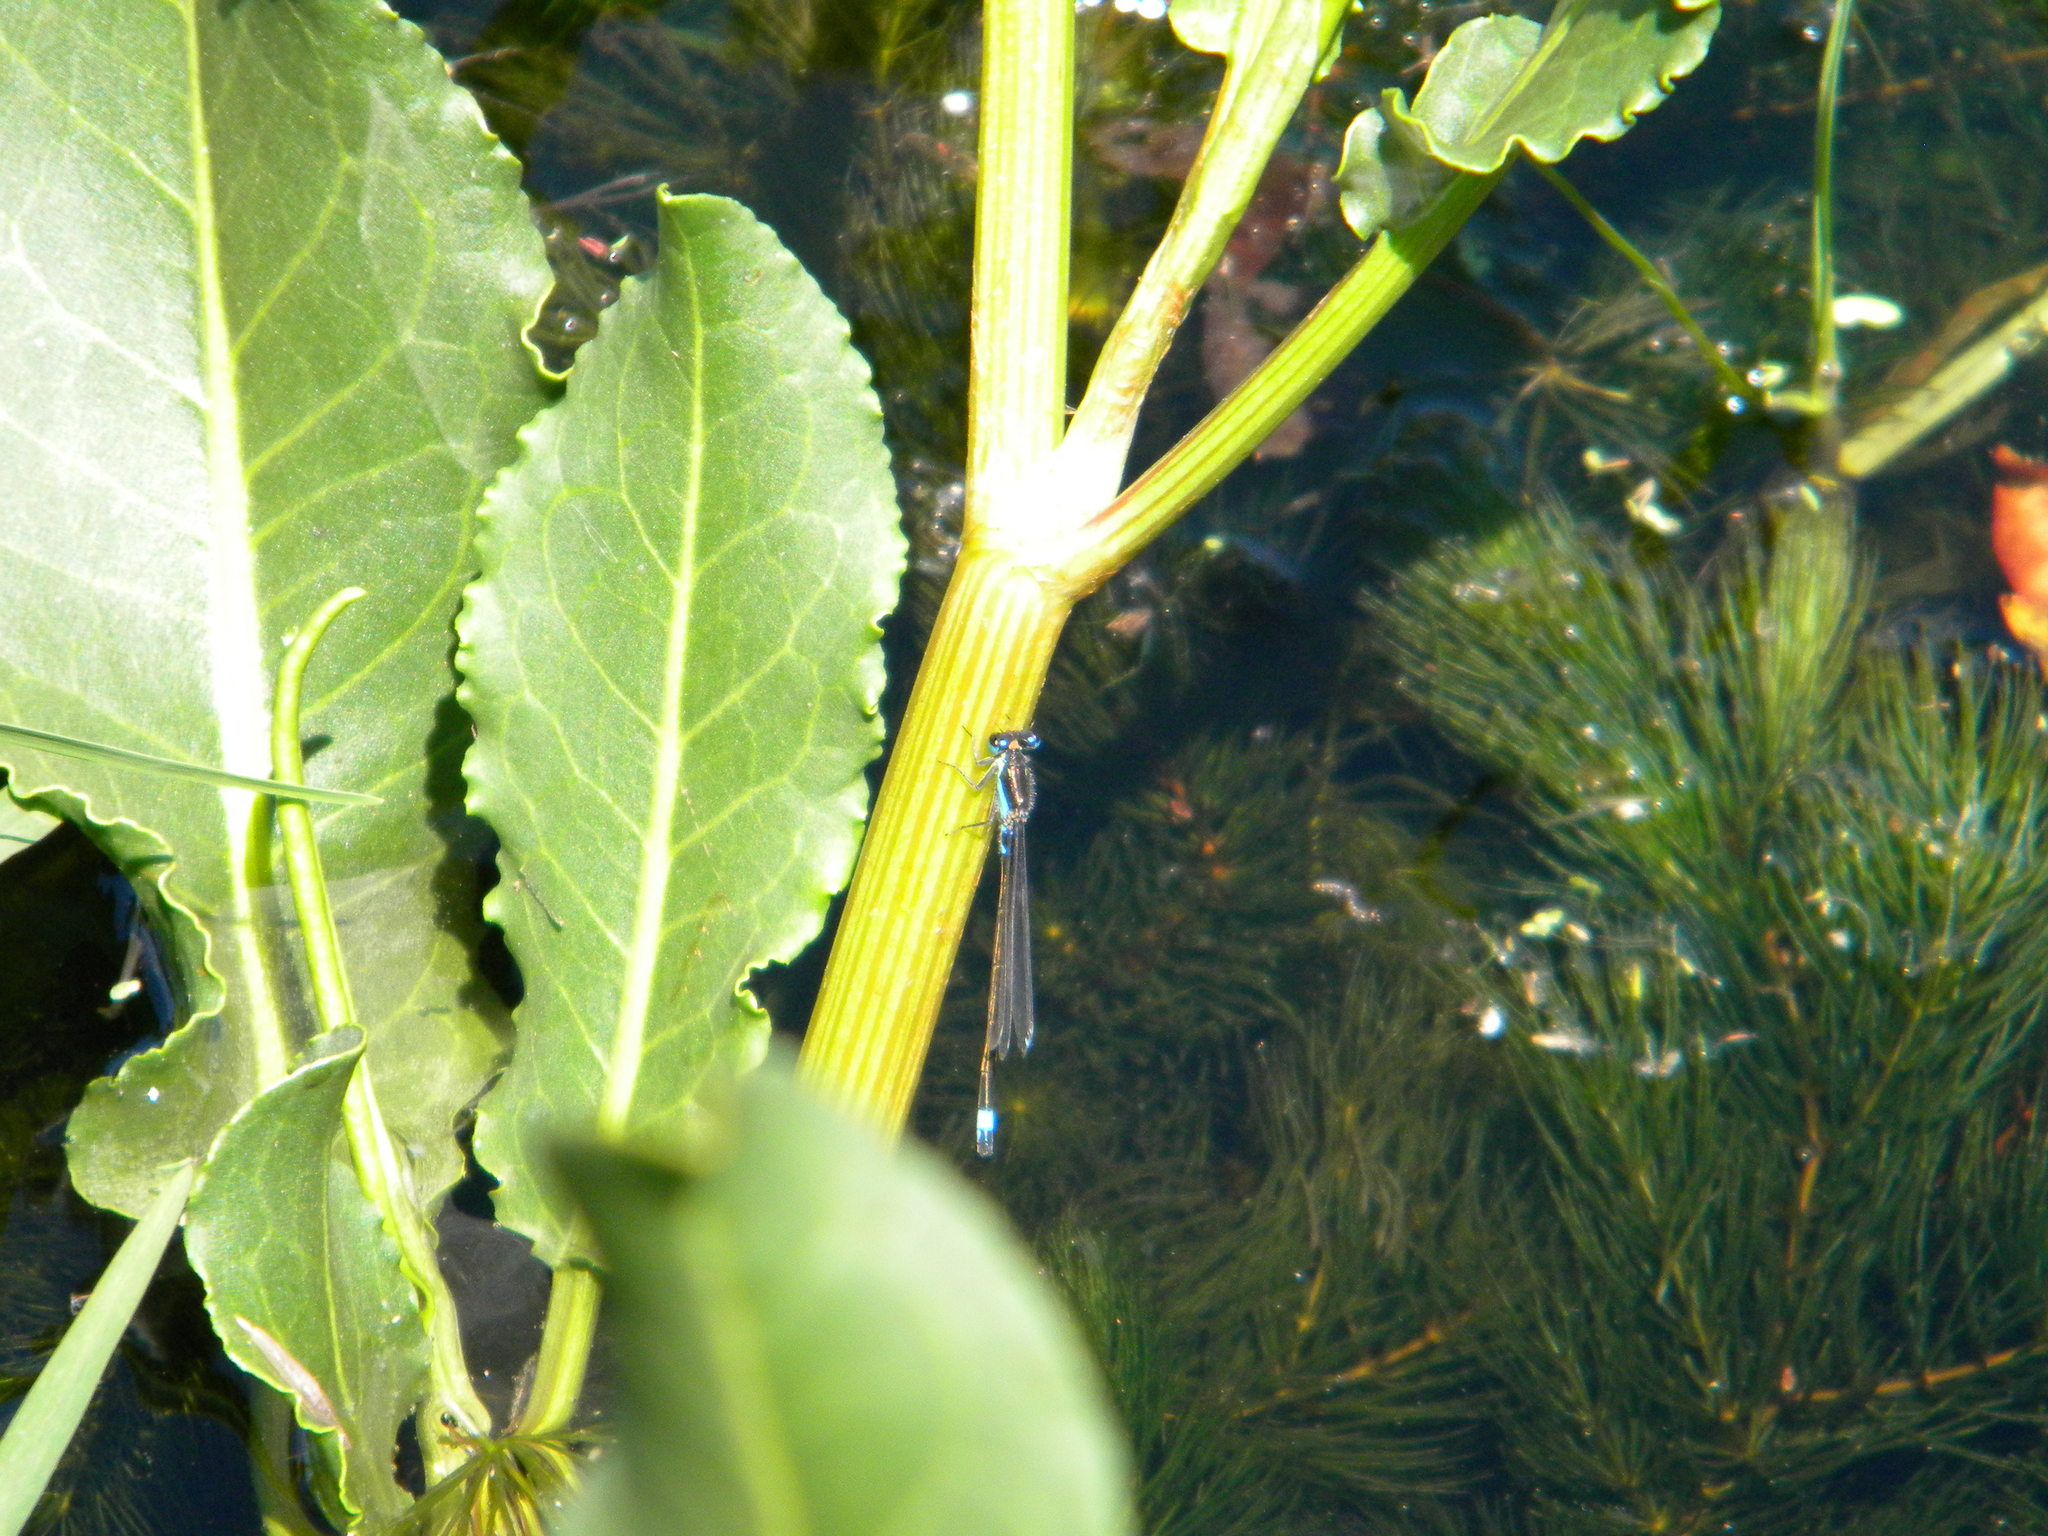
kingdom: Animalia
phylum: Arthropoda
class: Insecta
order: Odonata
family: Coenagrionidae
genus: Ischnura
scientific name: Ischnura senegalensis
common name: Tropical bluetail
